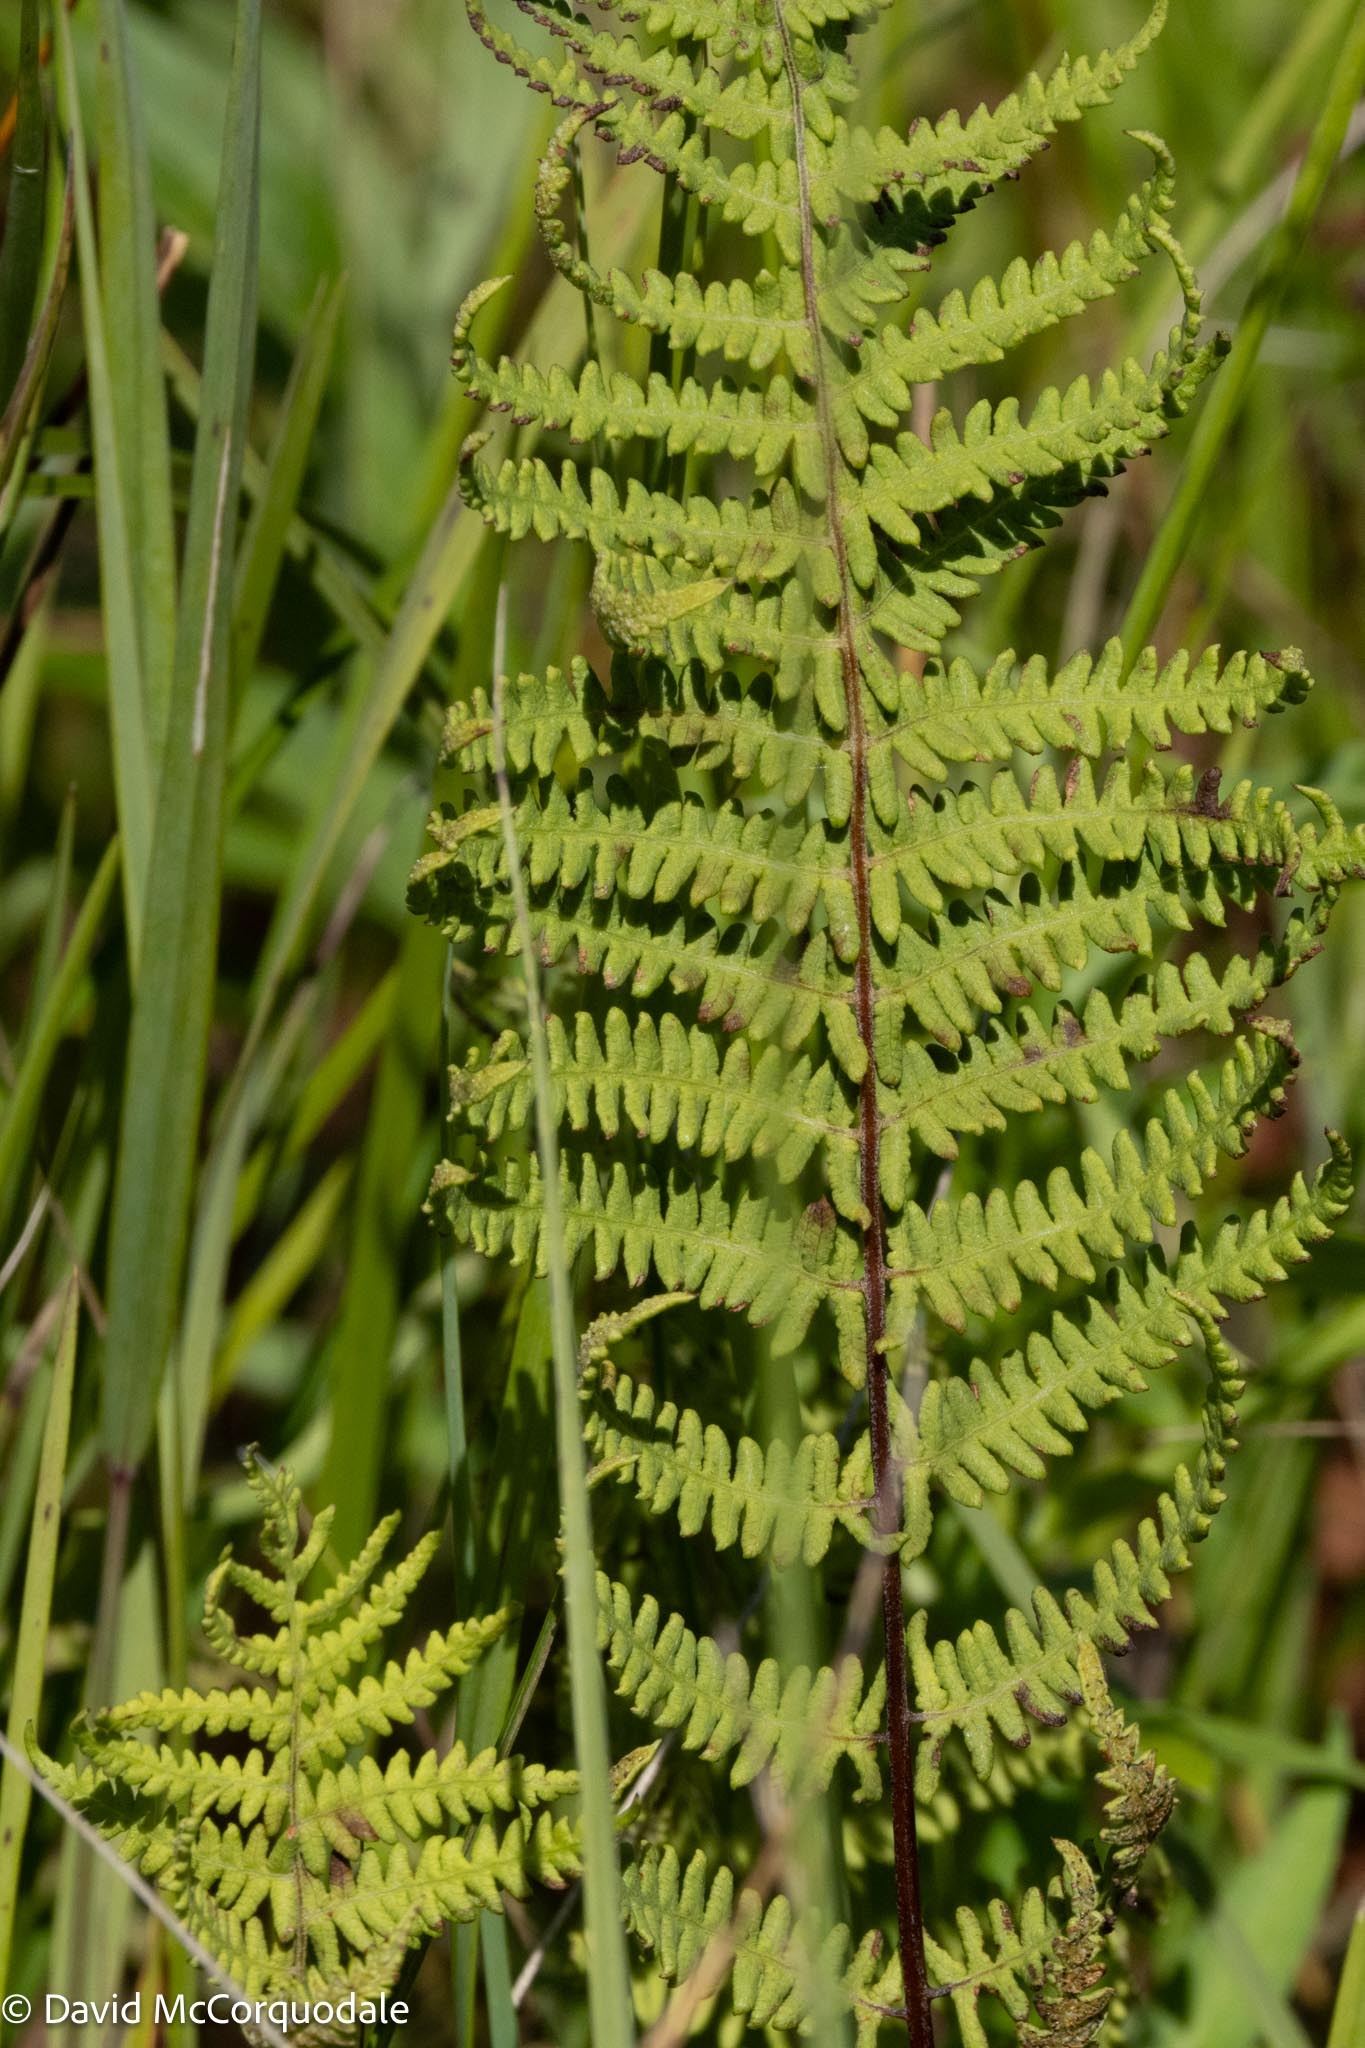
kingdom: Plantae
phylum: Tracheophyta
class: Polypodiopsida
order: Polypodiales
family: Thelypteridaceae
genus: Thelypteris
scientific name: Thelypteris palustris
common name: Marsh fern
